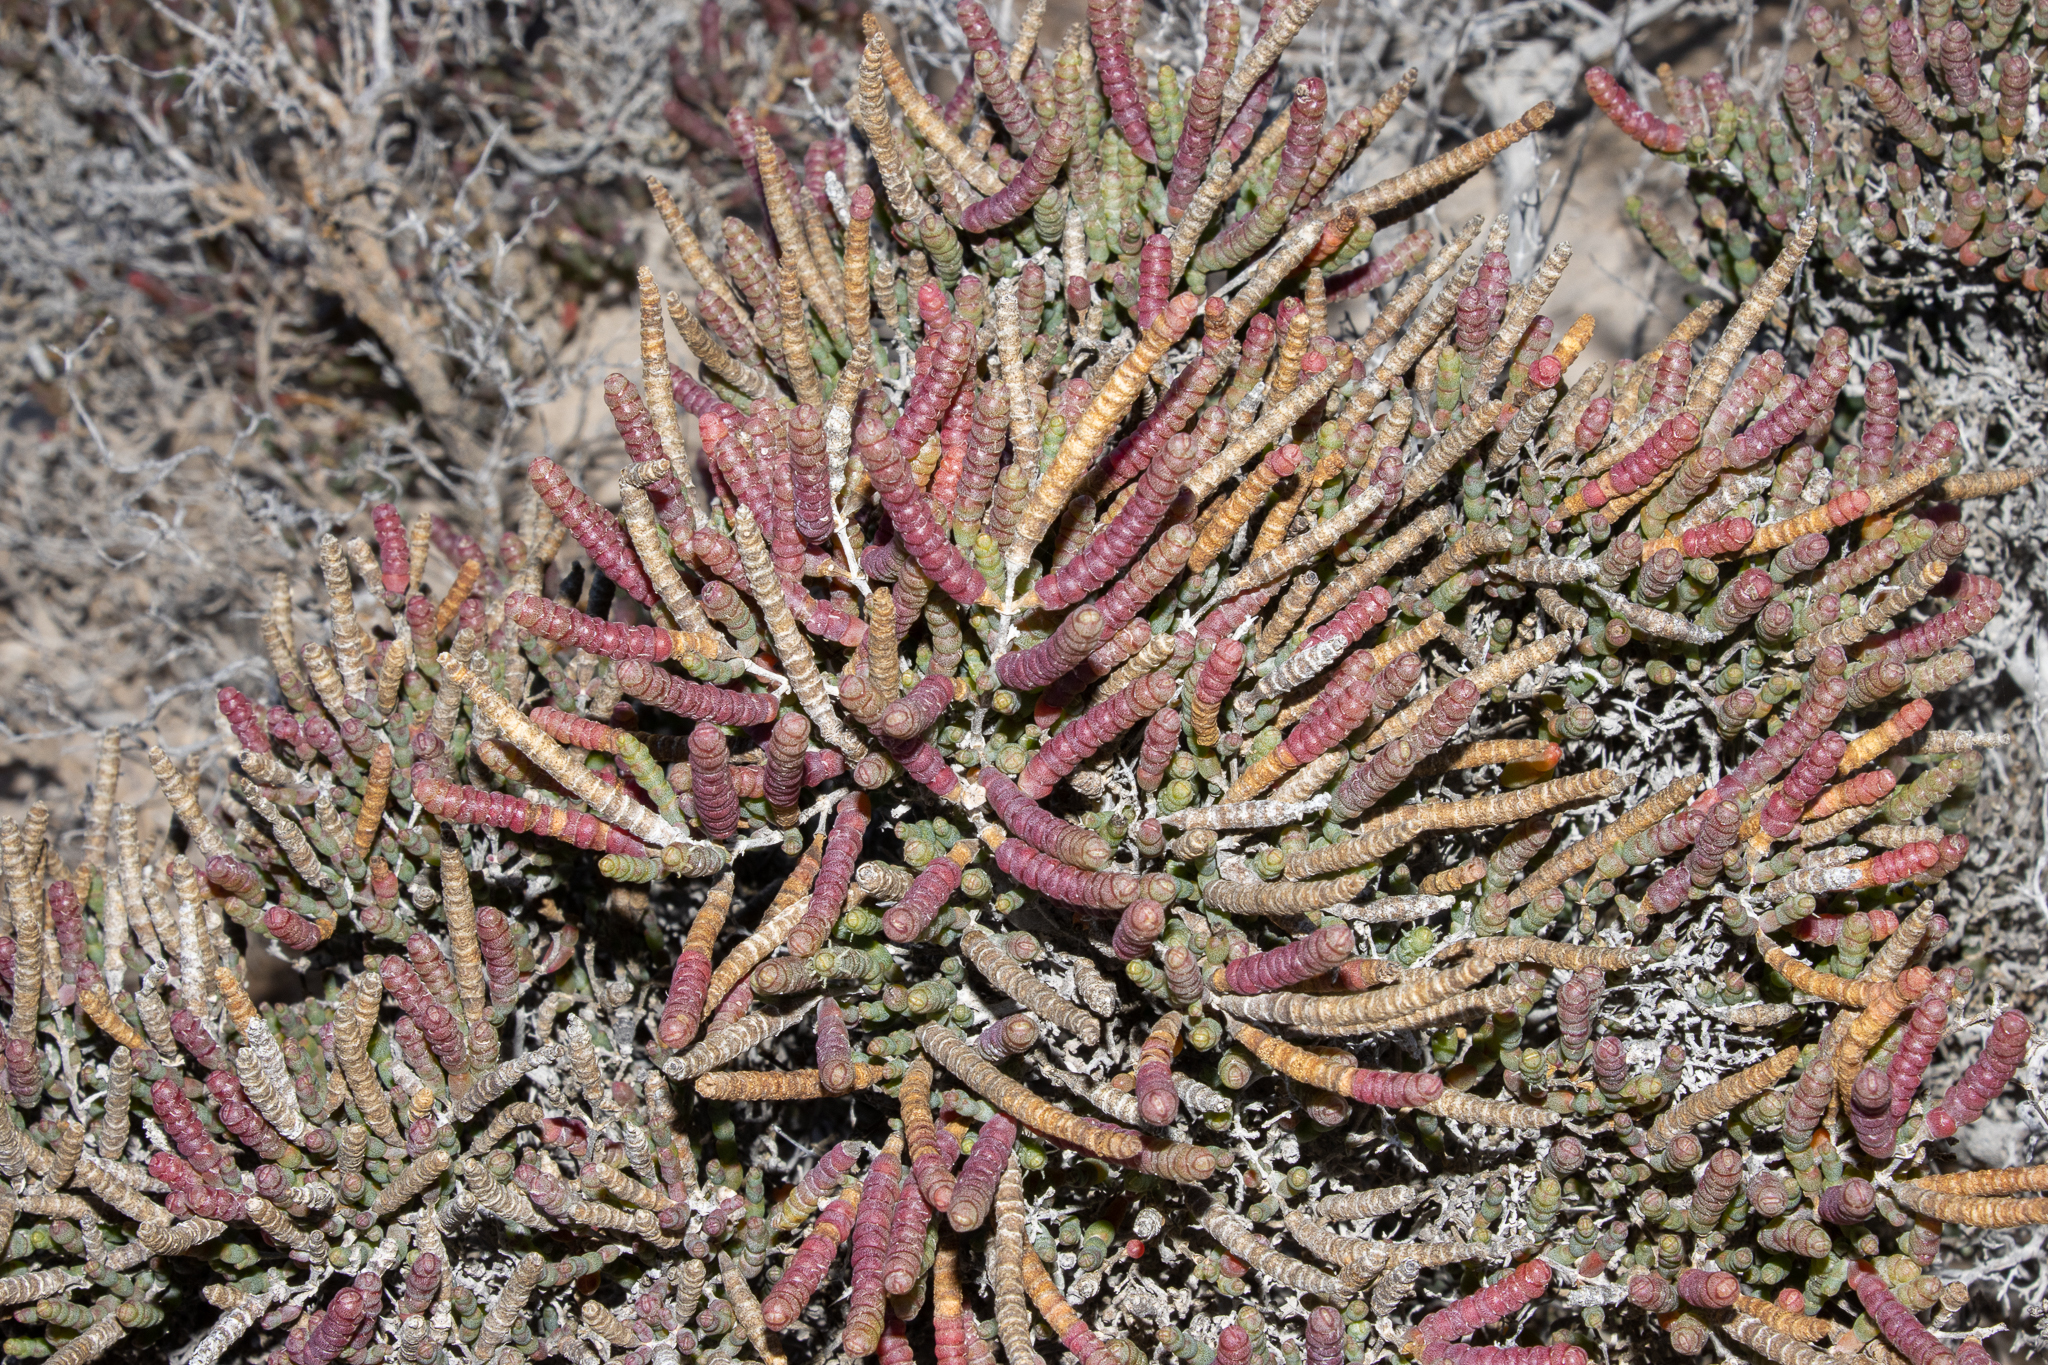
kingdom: Plantae
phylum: Tracheophyta
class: Magnoliopsida
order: Caryophyllales
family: Amaranthaceae
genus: Tecticornia
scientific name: Tecticornia pruinosa
